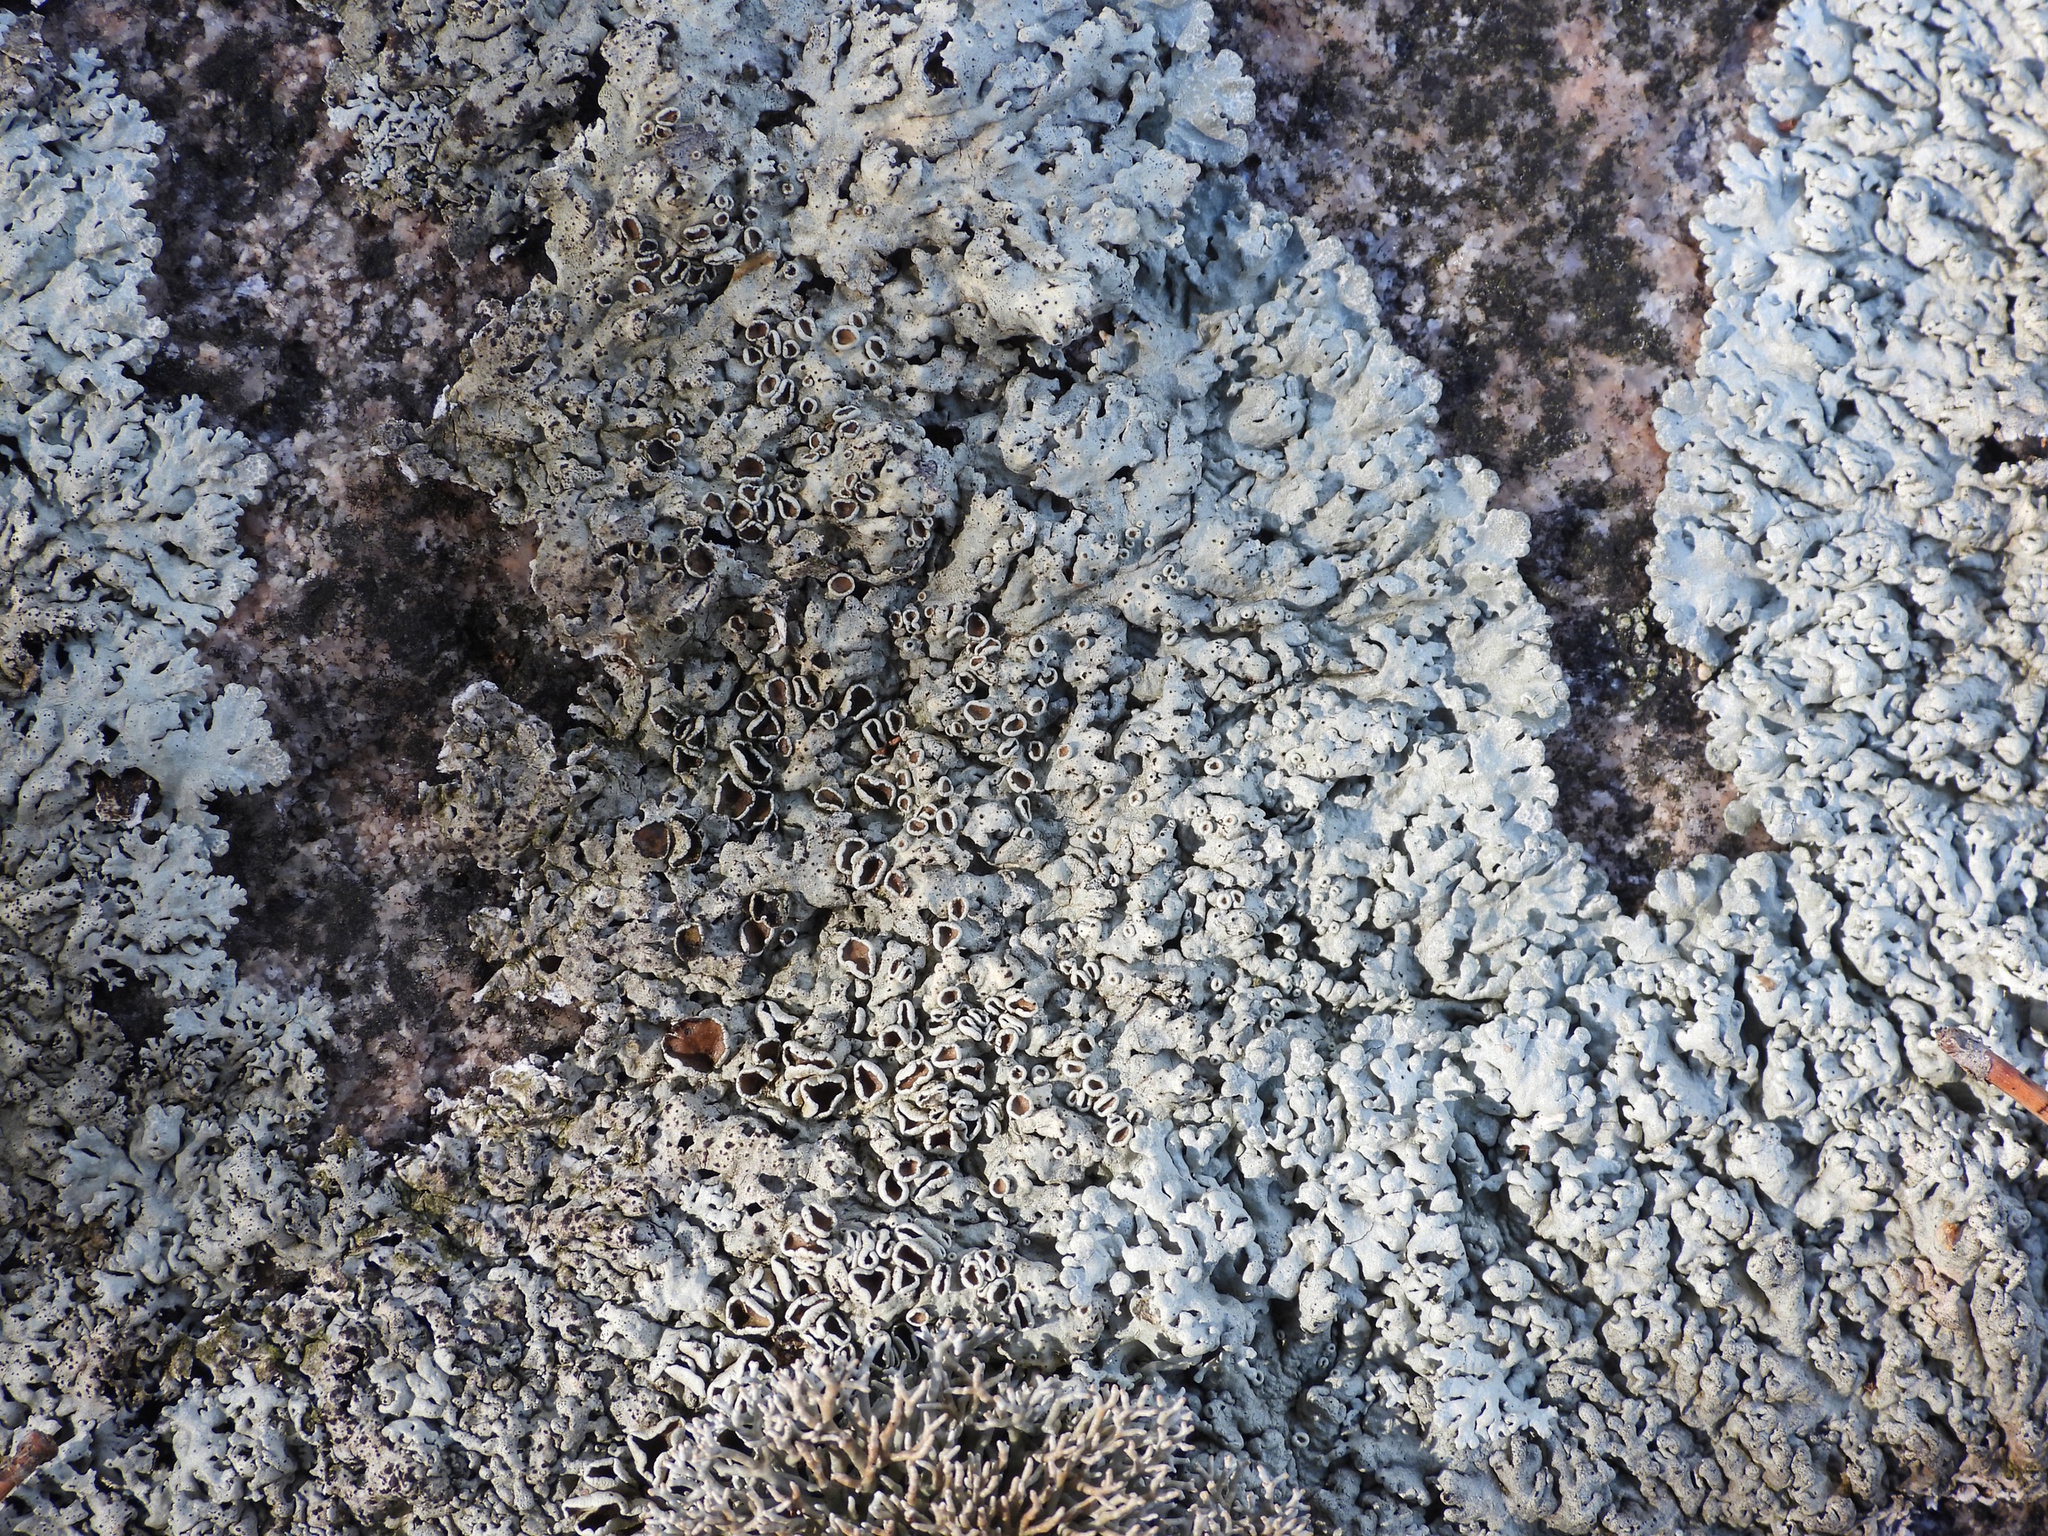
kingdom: Fungi
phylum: Ascomycota
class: Lecanoromycetes
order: Lecanorales
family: Parmeliaceae
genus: Arctoparmelia
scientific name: Arctoparmelia centrifuga
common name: Concentric ring lichen
